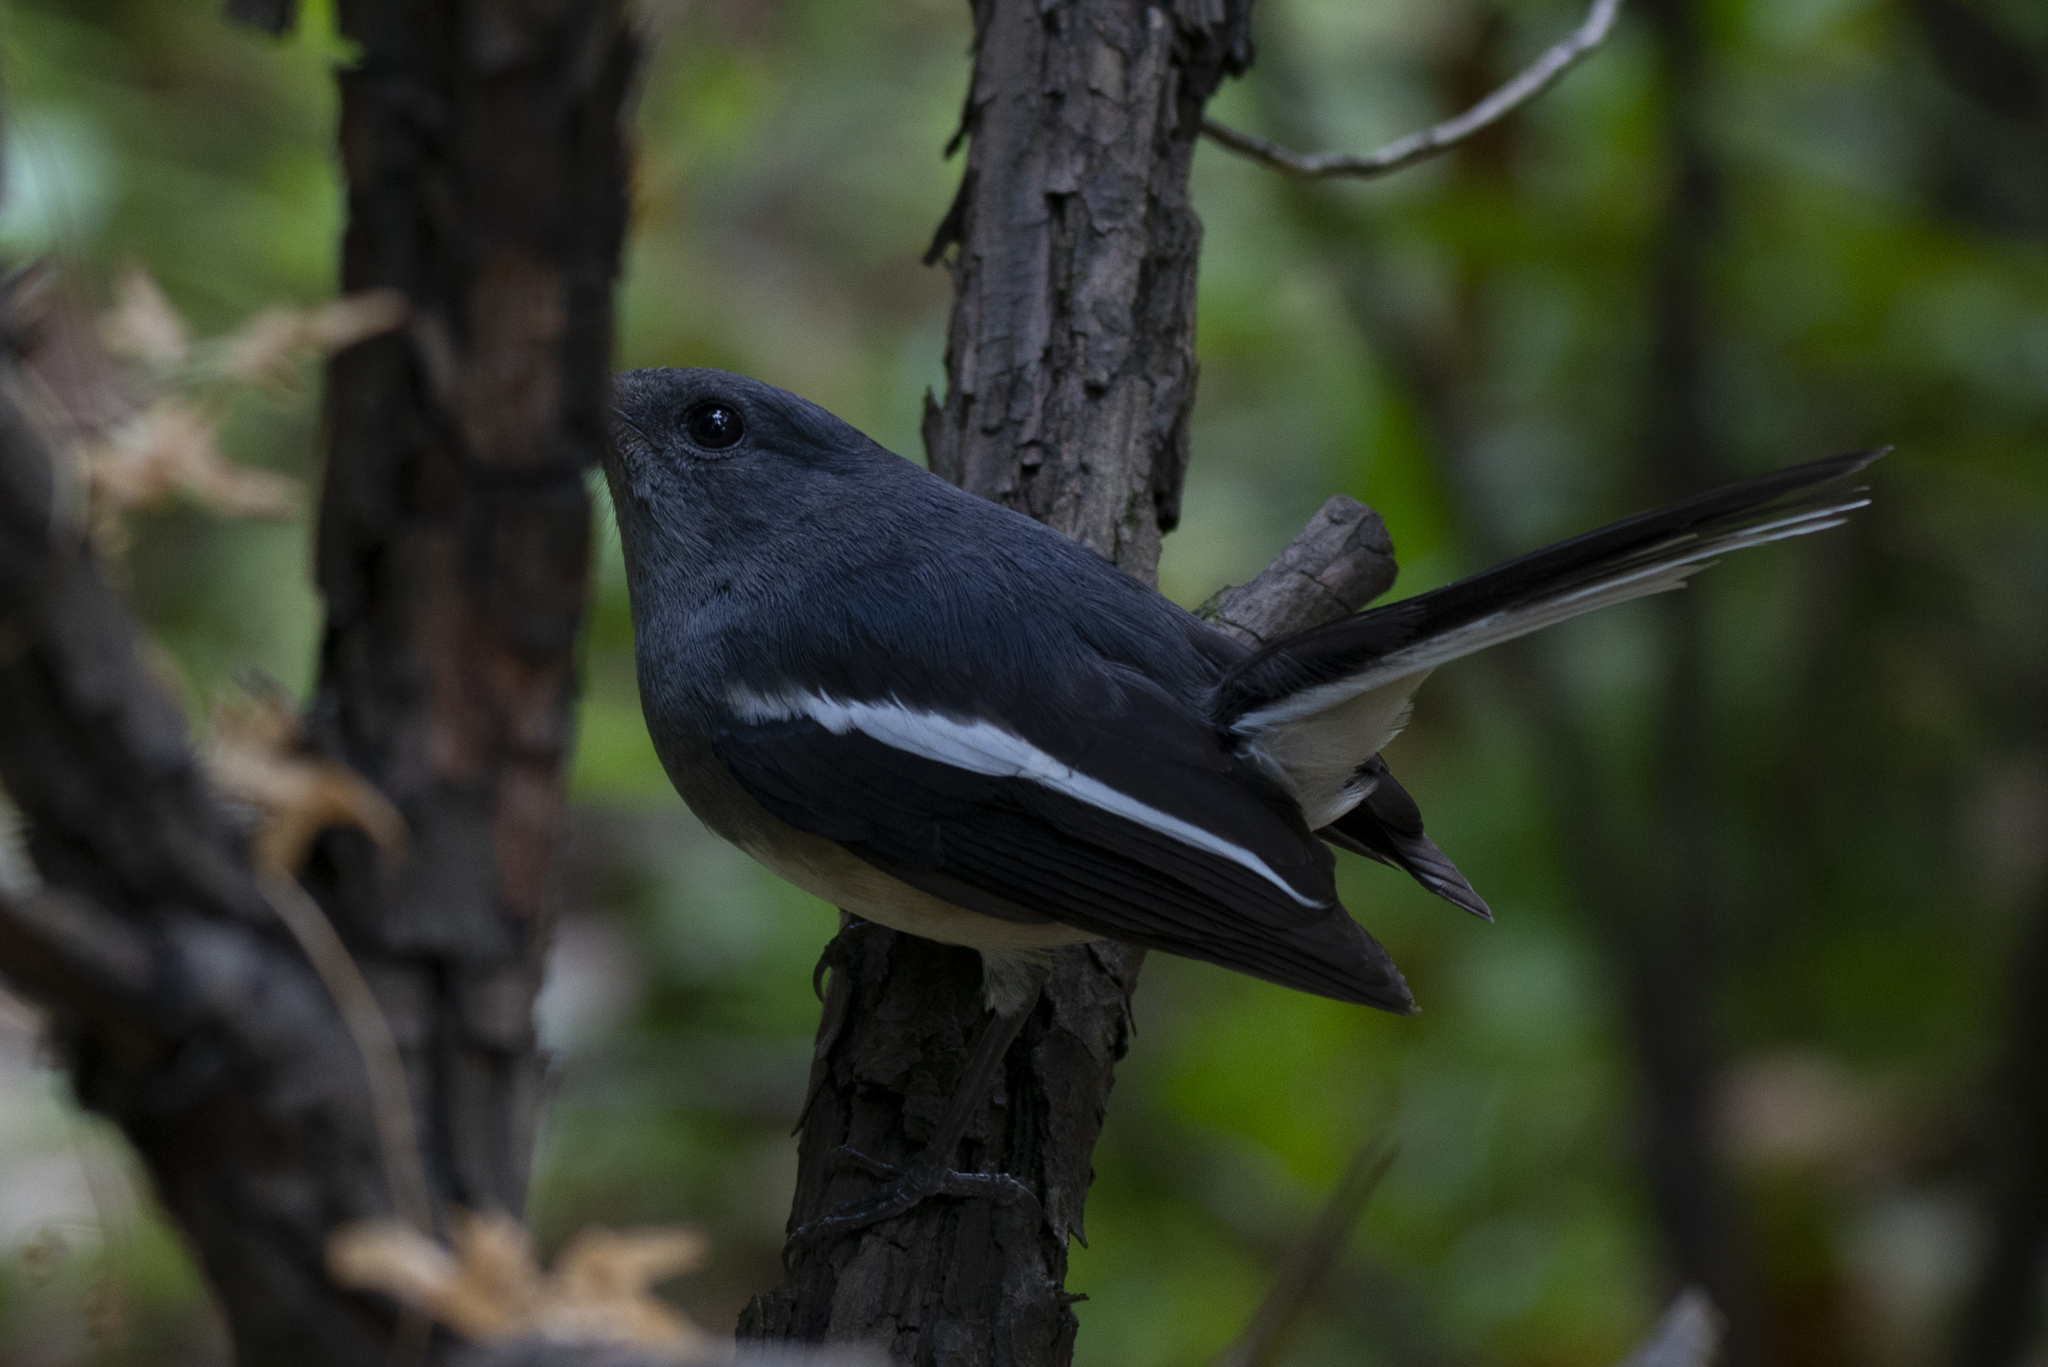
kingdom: Animalia
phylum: Chordata
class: Aves
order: Passeriformes
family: Muscicapidae
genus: Copsychus
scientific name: Copsychus saularis
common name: Oriental magpie-robin
